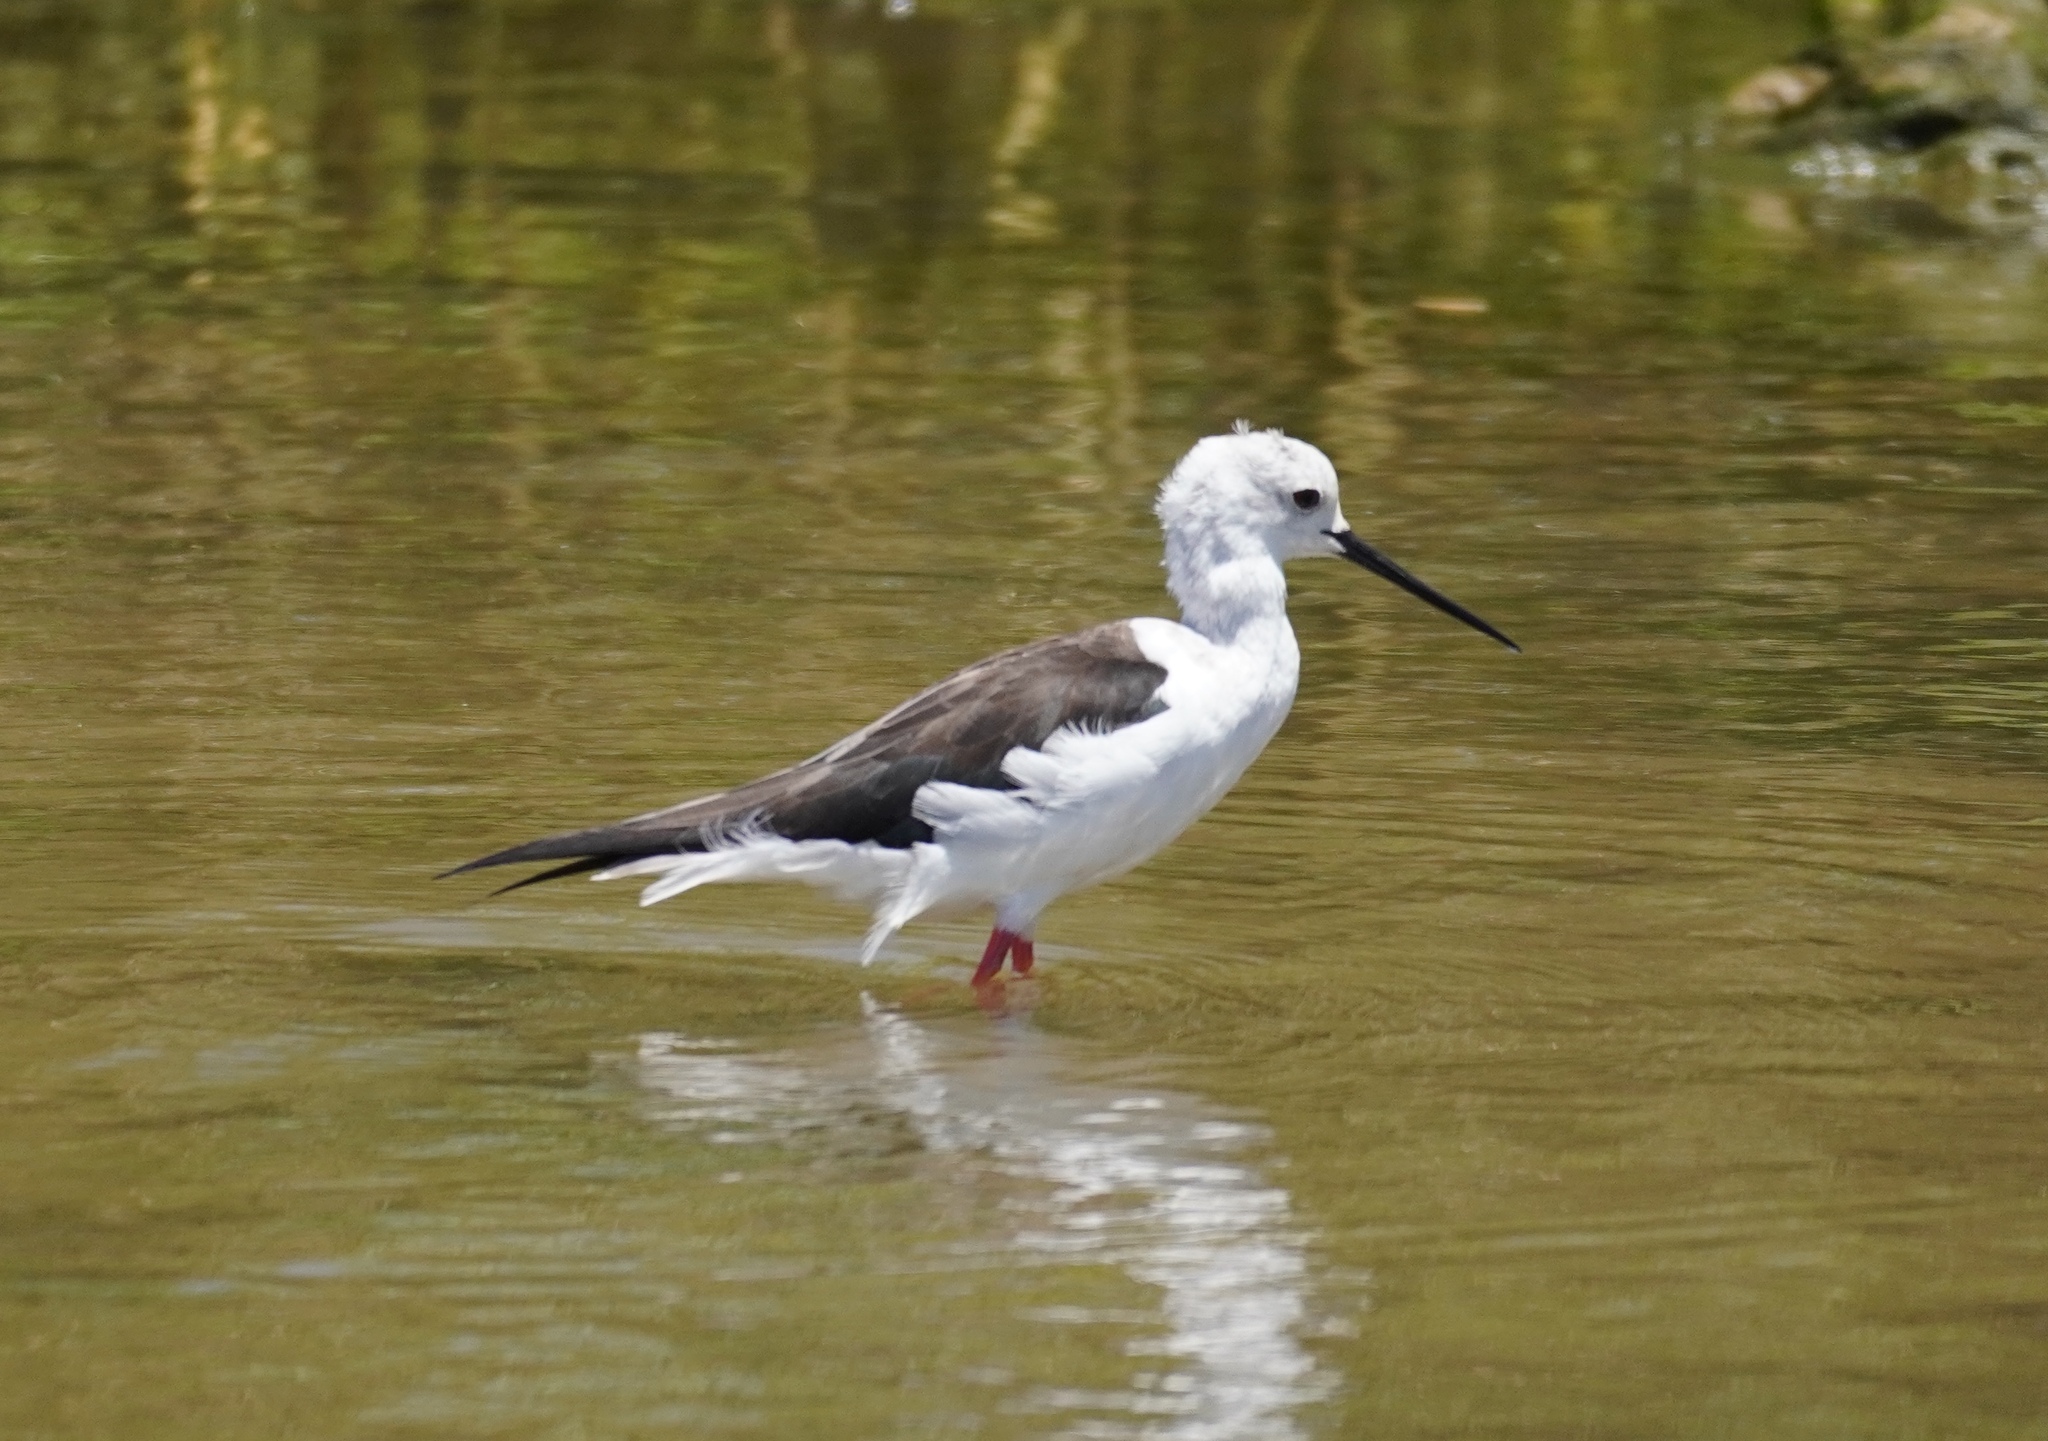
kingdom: Animalia
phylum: Chordata
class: Aves
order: Charadriiformes
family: Recurvirostridae
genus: Himantopus
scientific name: Himantopus himantopus
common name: Black-winged stilt
